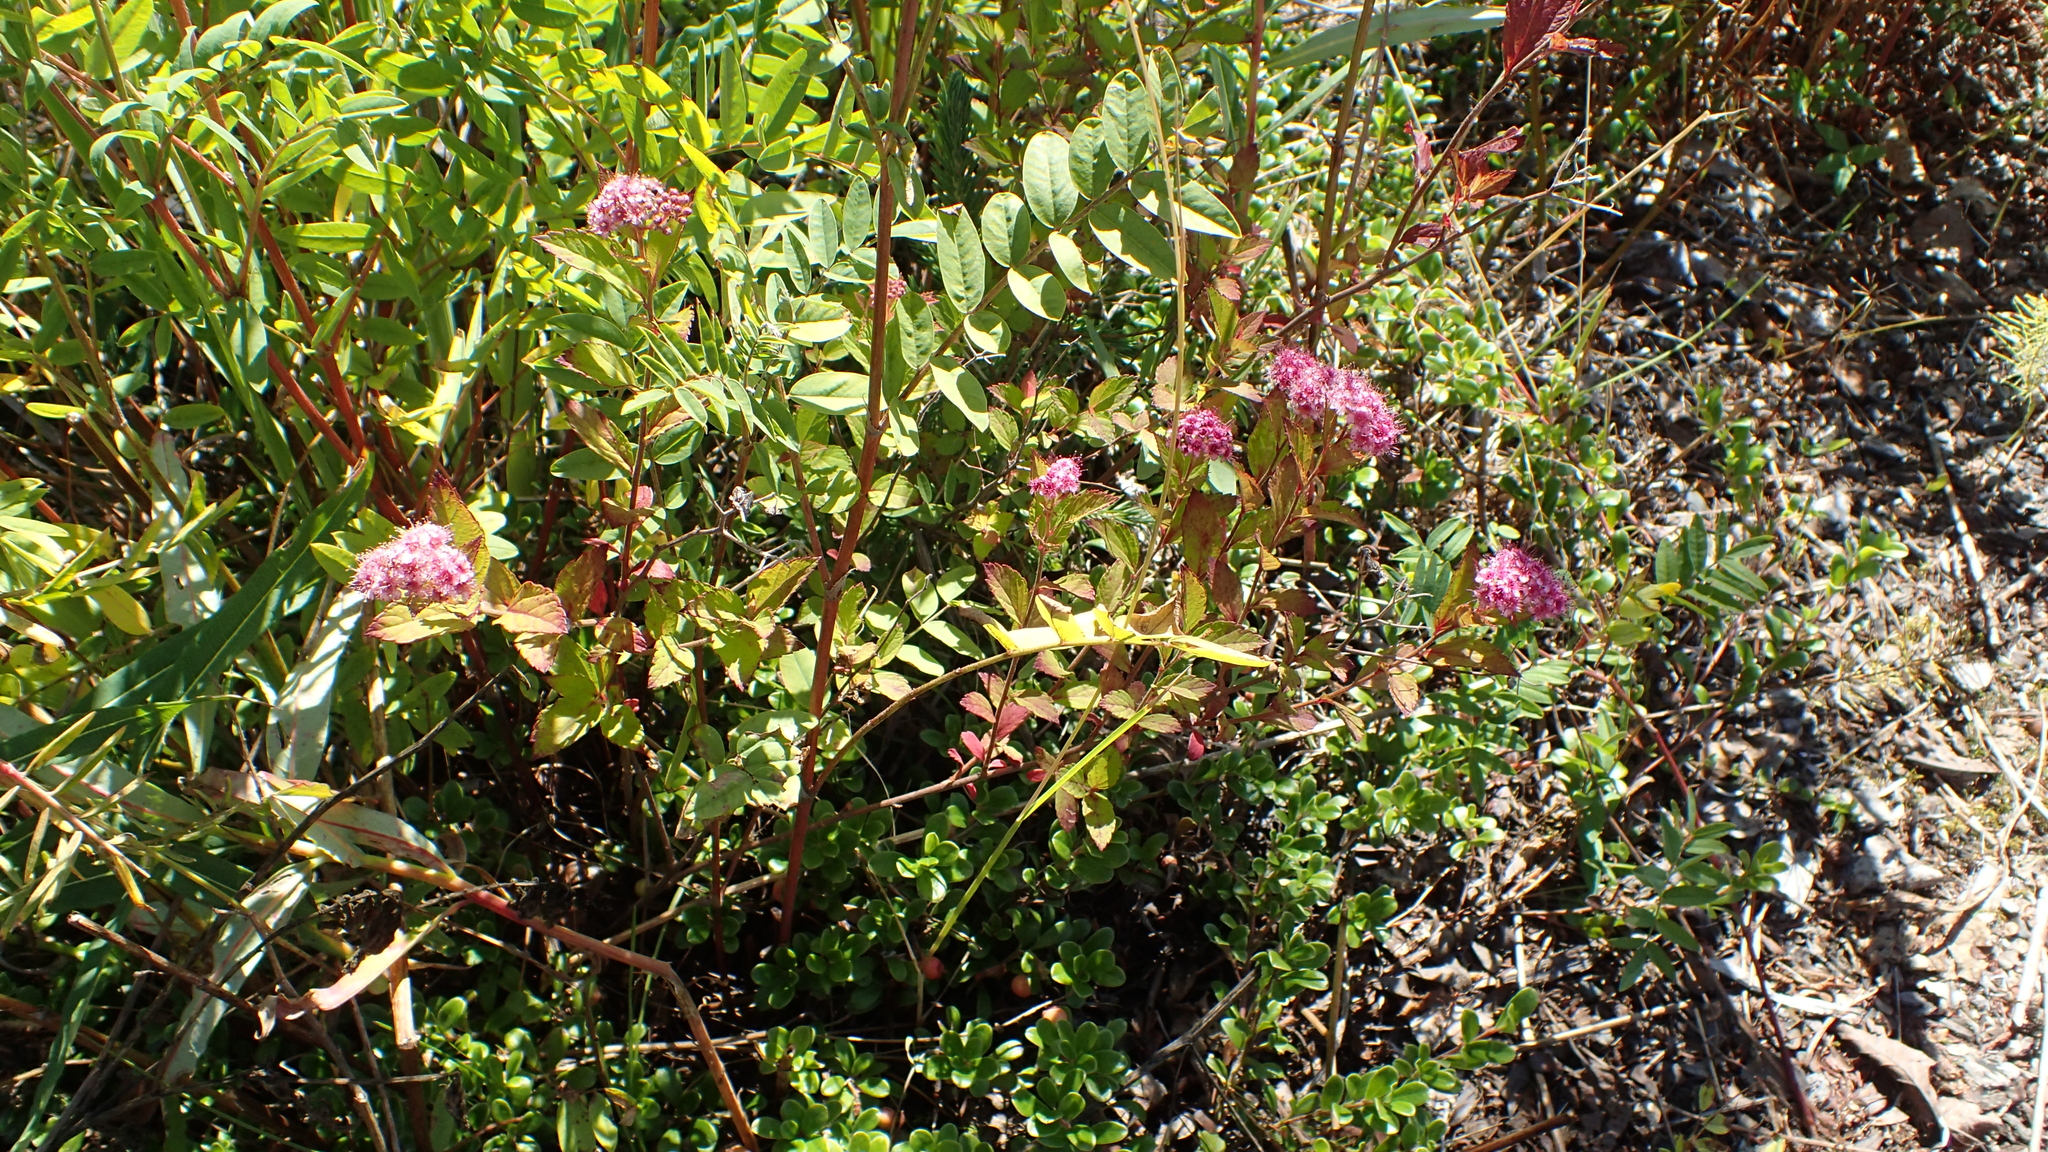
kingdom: Plantae
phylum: Tracheophyta
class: Magnoliopsida
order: Rosales
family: Rosaceae
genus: Spiraea
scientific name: Spiraea japonica
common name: Japanese spiraea
